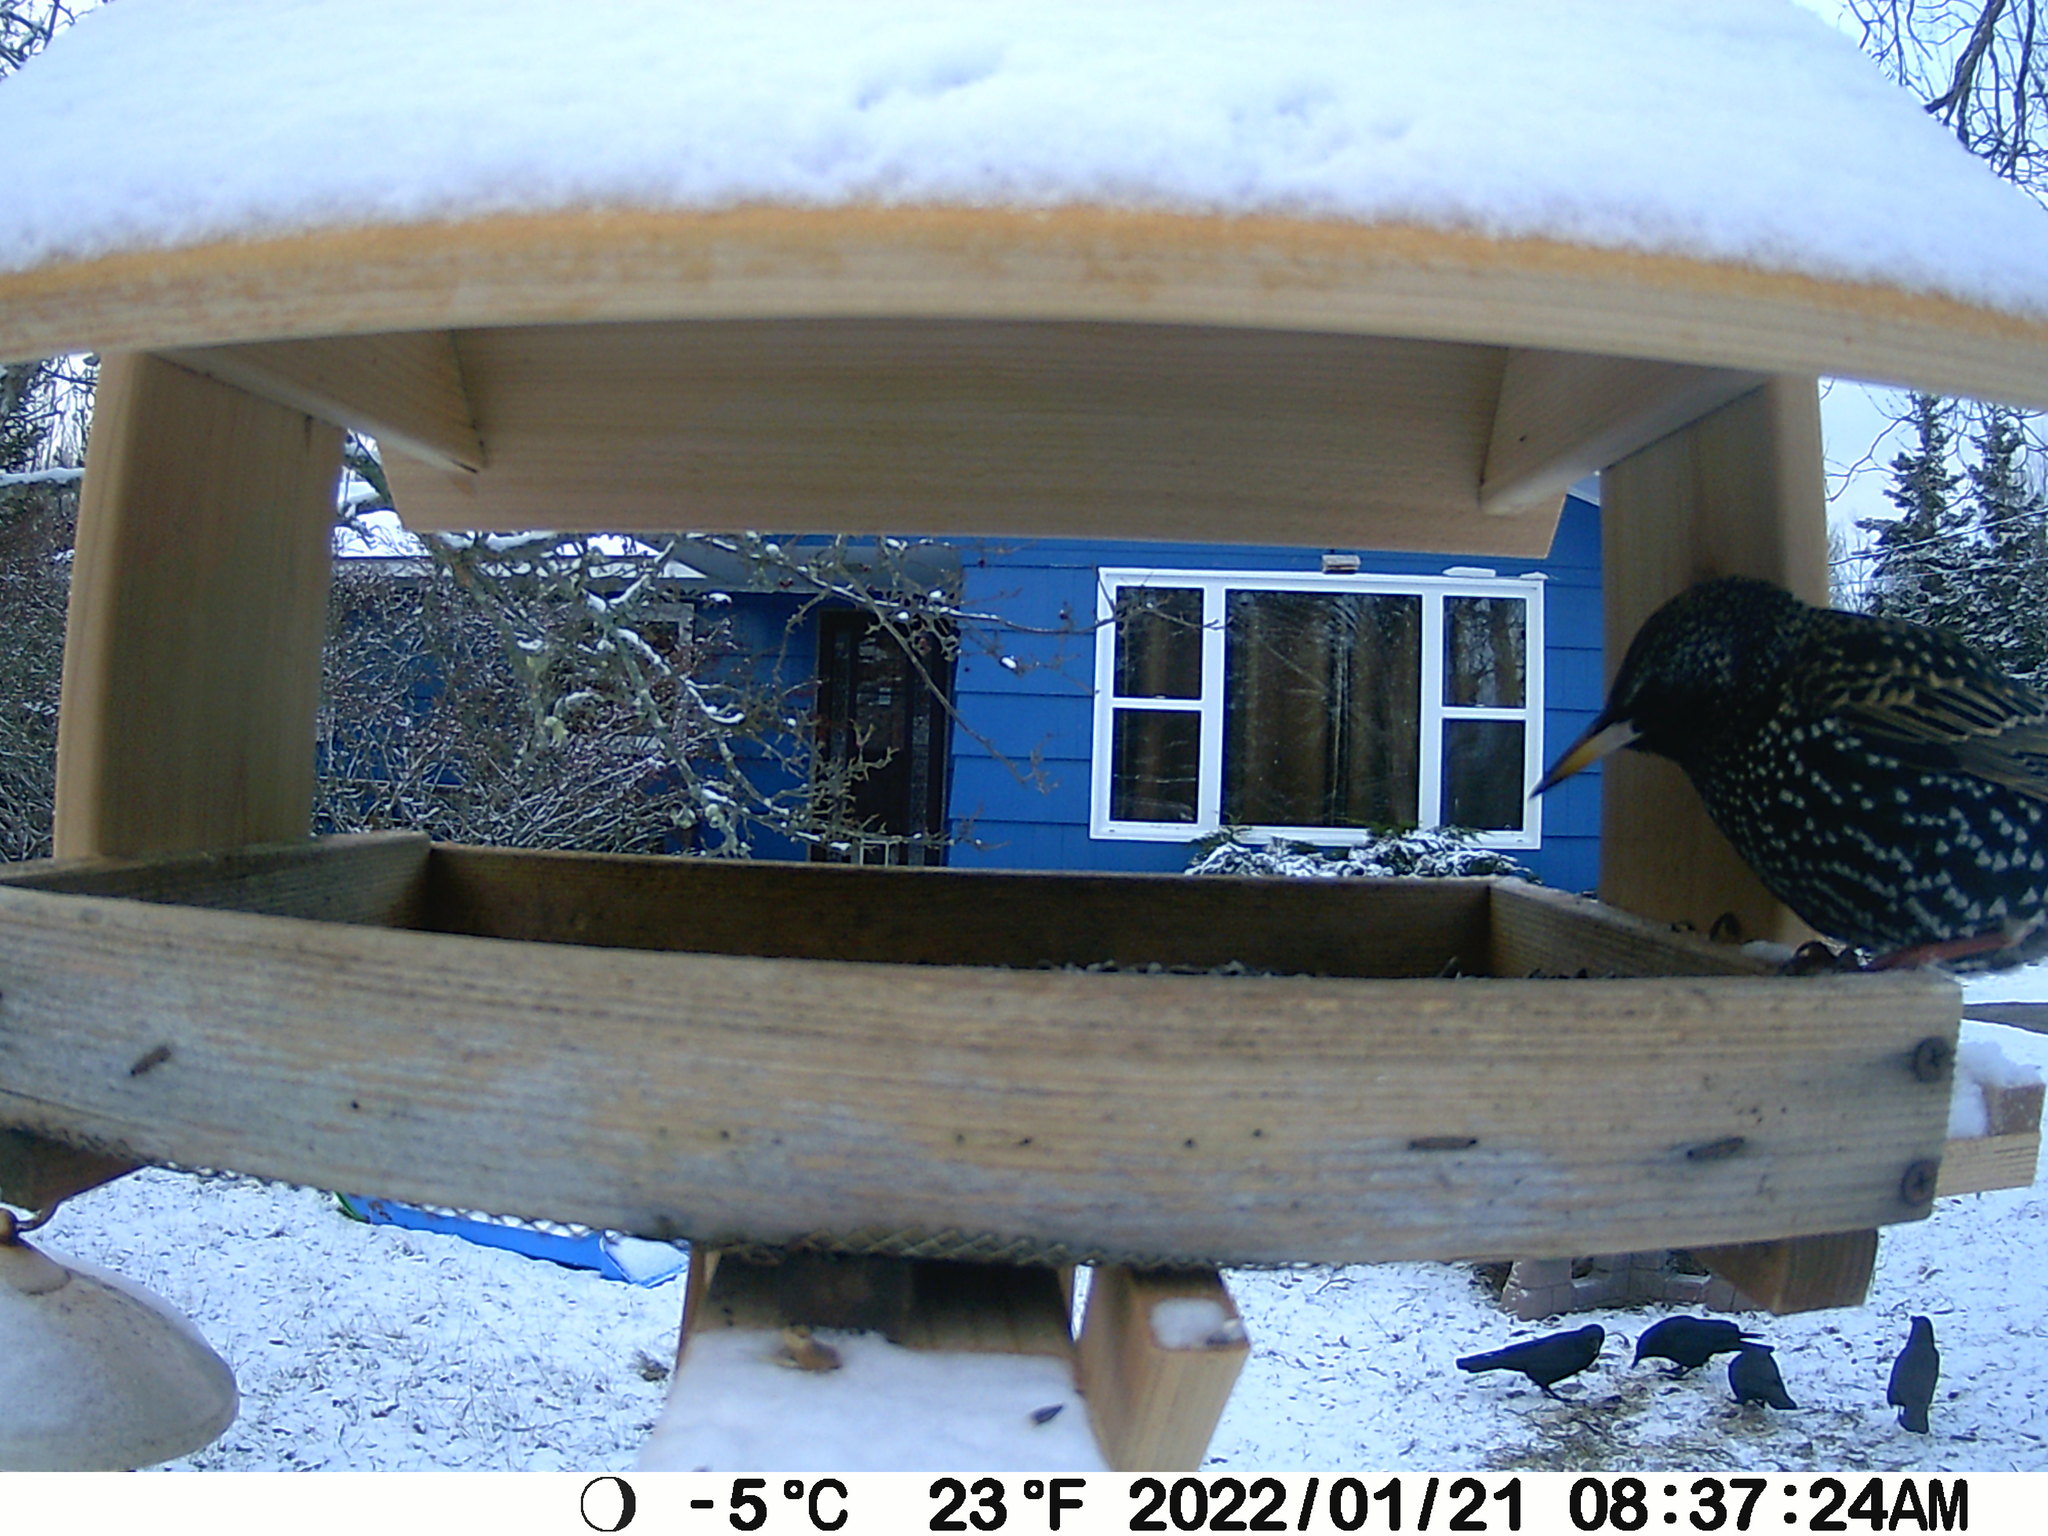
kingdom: Animalia
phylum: Chordata
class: Aves
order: Passeriformes
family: Sturnidae
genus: Sturnus
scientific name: Sturnus vulgaris
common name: Common starling
